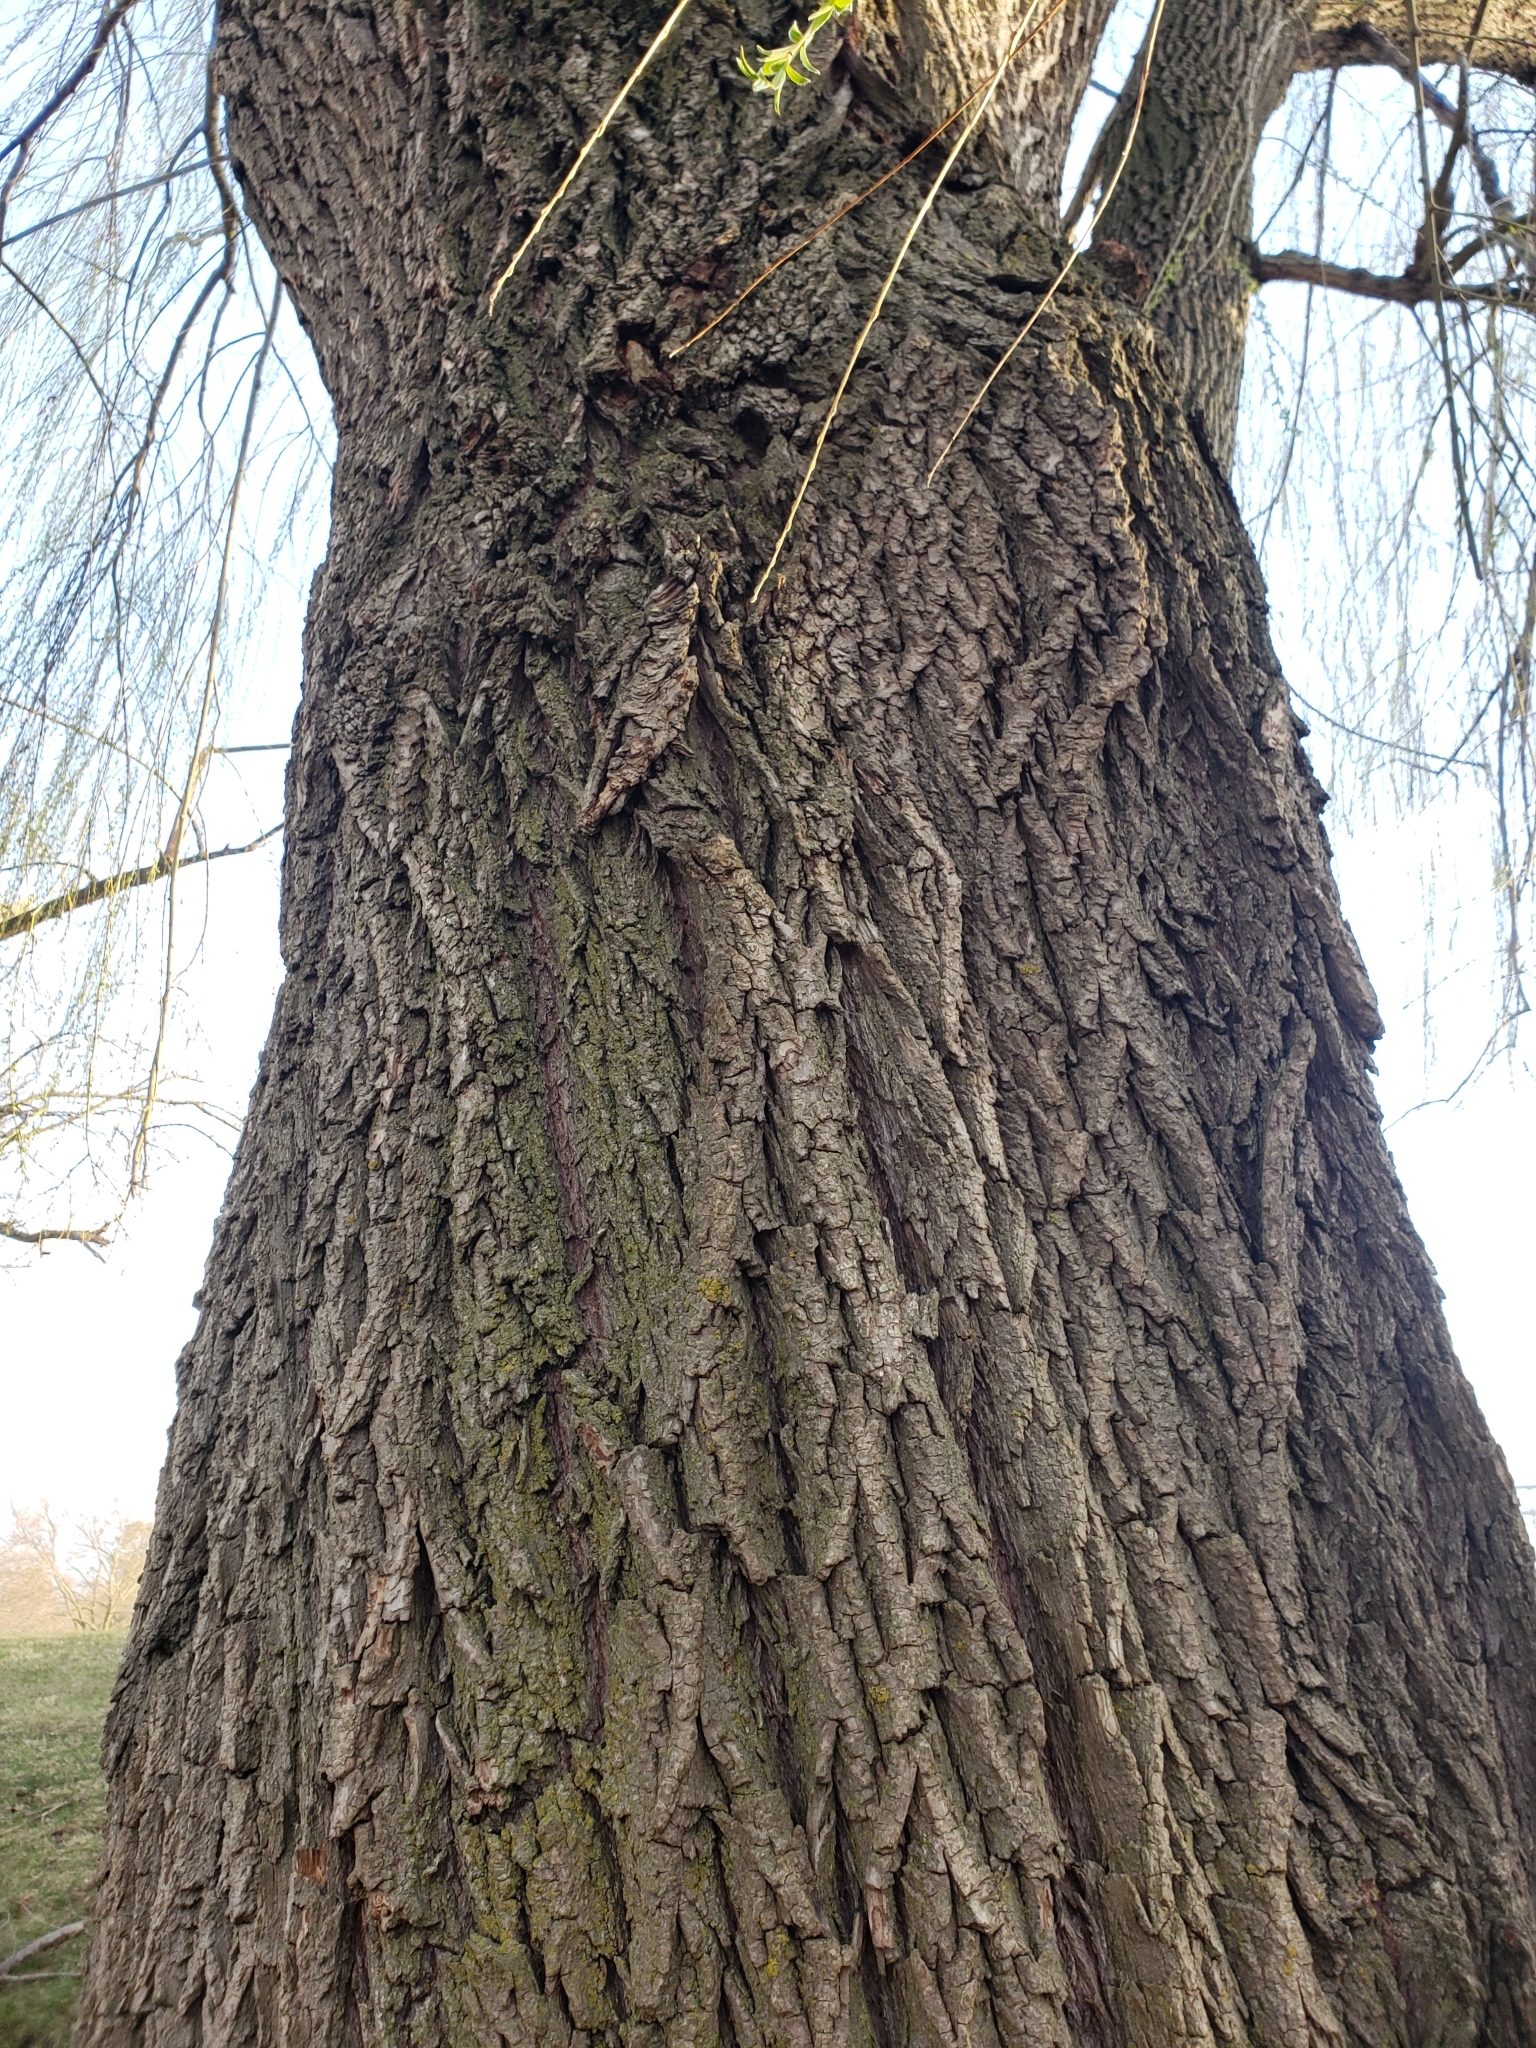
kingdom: Plantae
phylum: Tracheophyta
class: Magnoliopsida
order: Malpighiales
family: Salicaceae
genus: Salix
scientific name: Salix pendulina
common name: Wisconsin weeping willow
